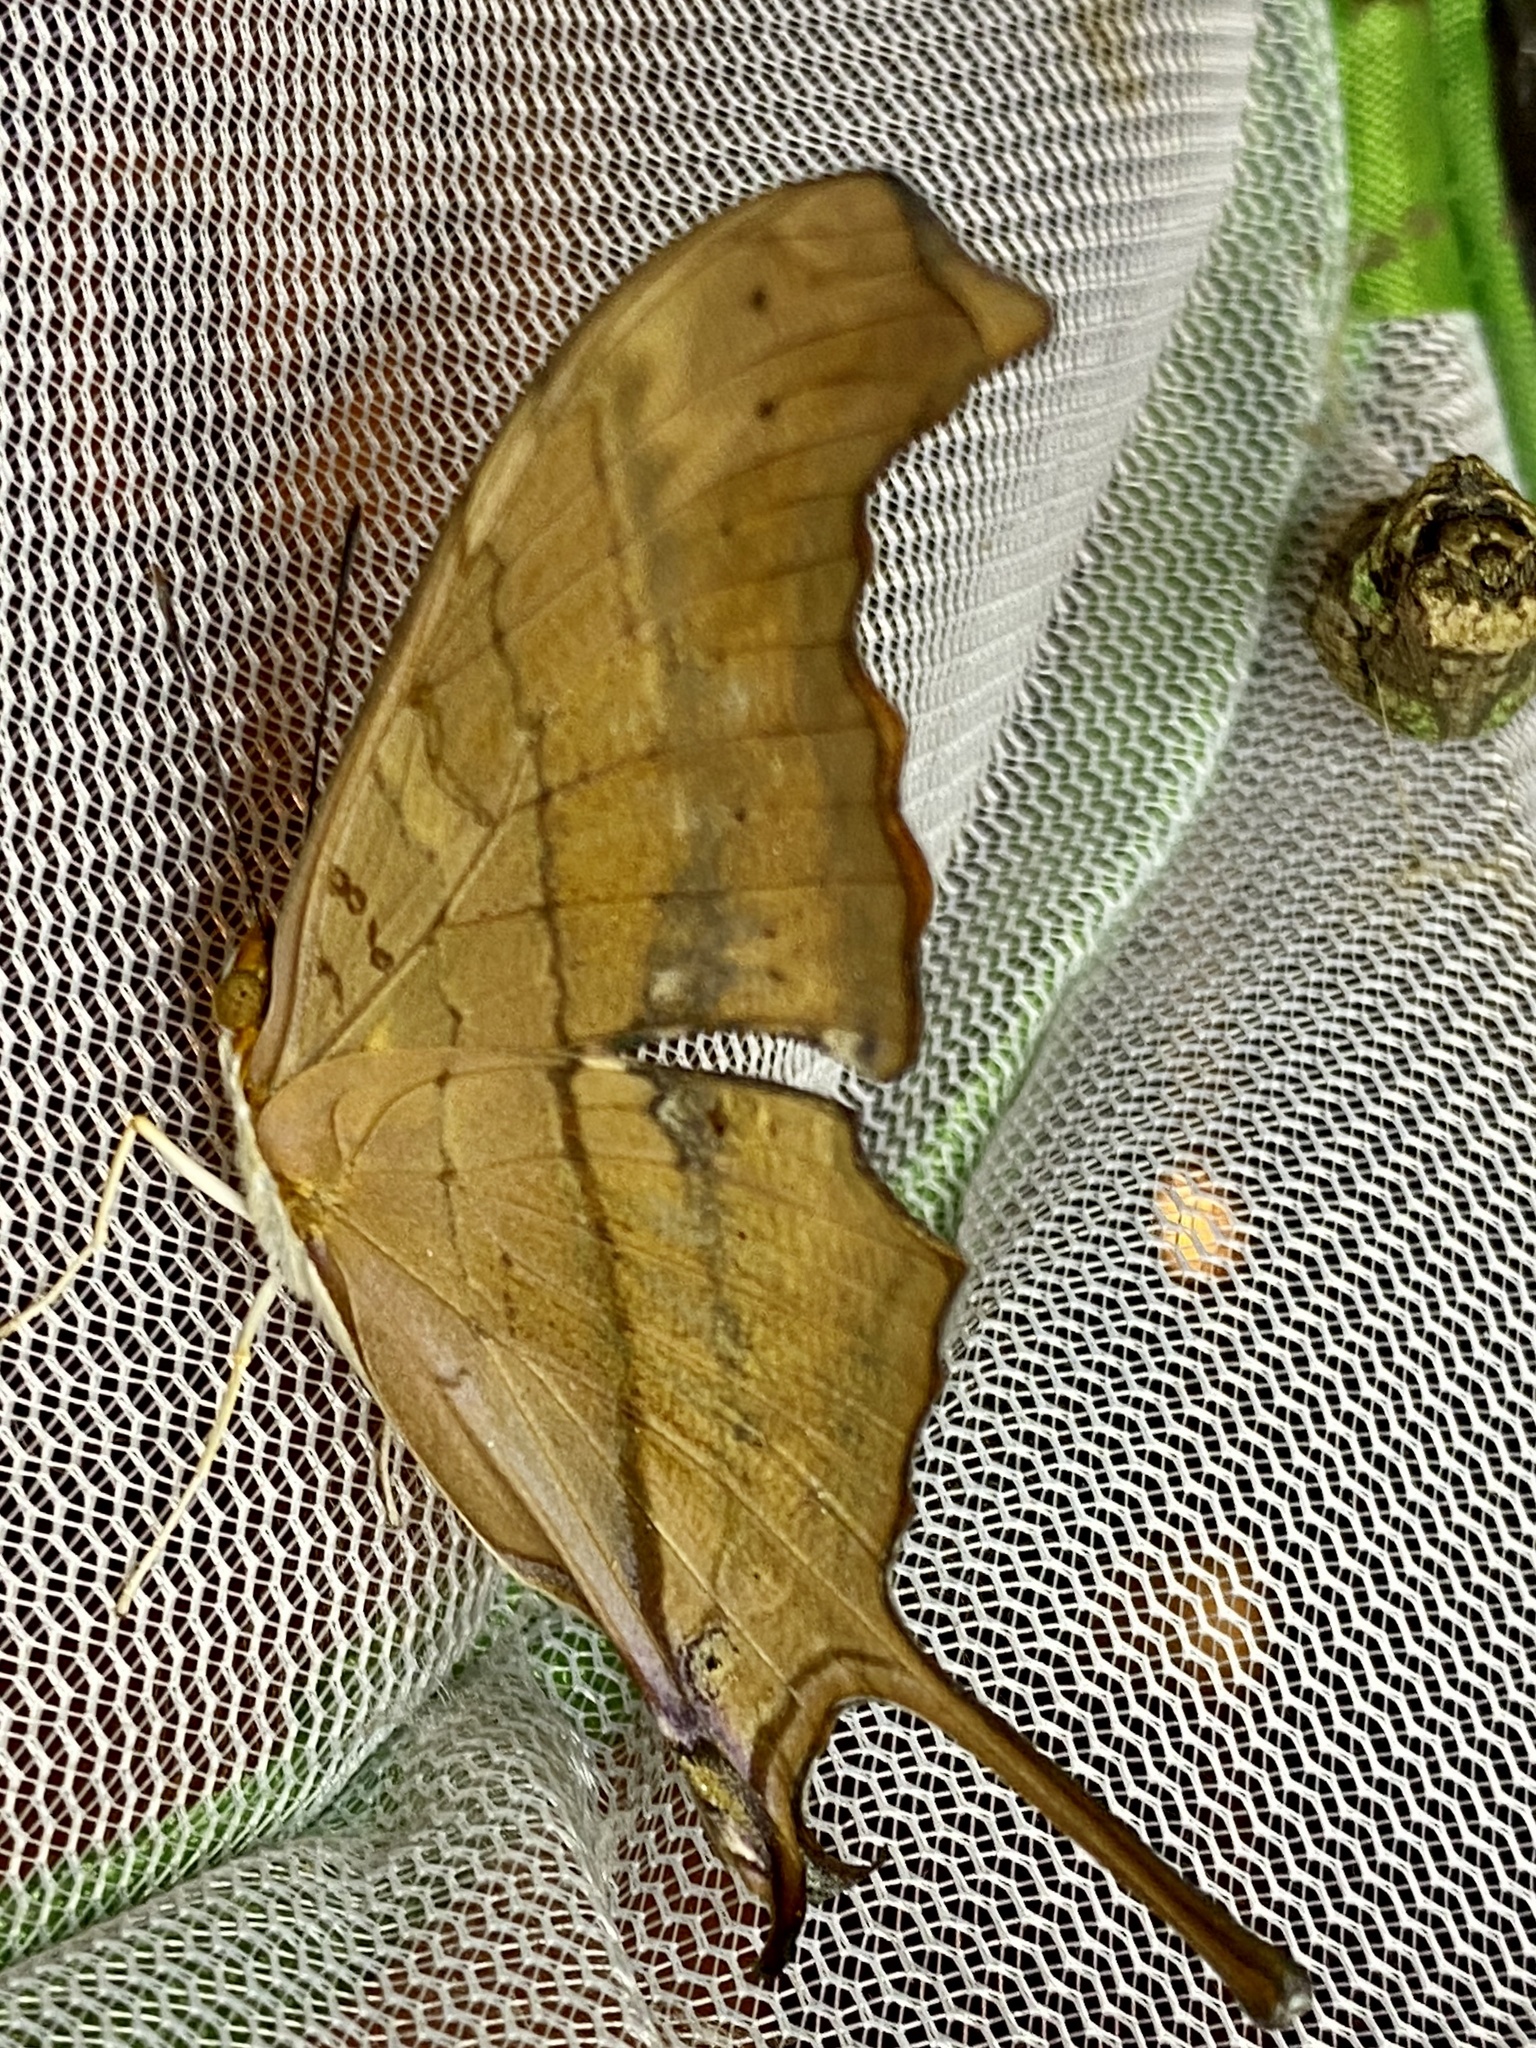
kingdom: Animalia
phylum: Arthropoda
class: Insecta
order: Lepidoptera
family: Nymphalidae
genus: Marpesia
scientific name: Marpesia petreus
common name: Red dagger wing
